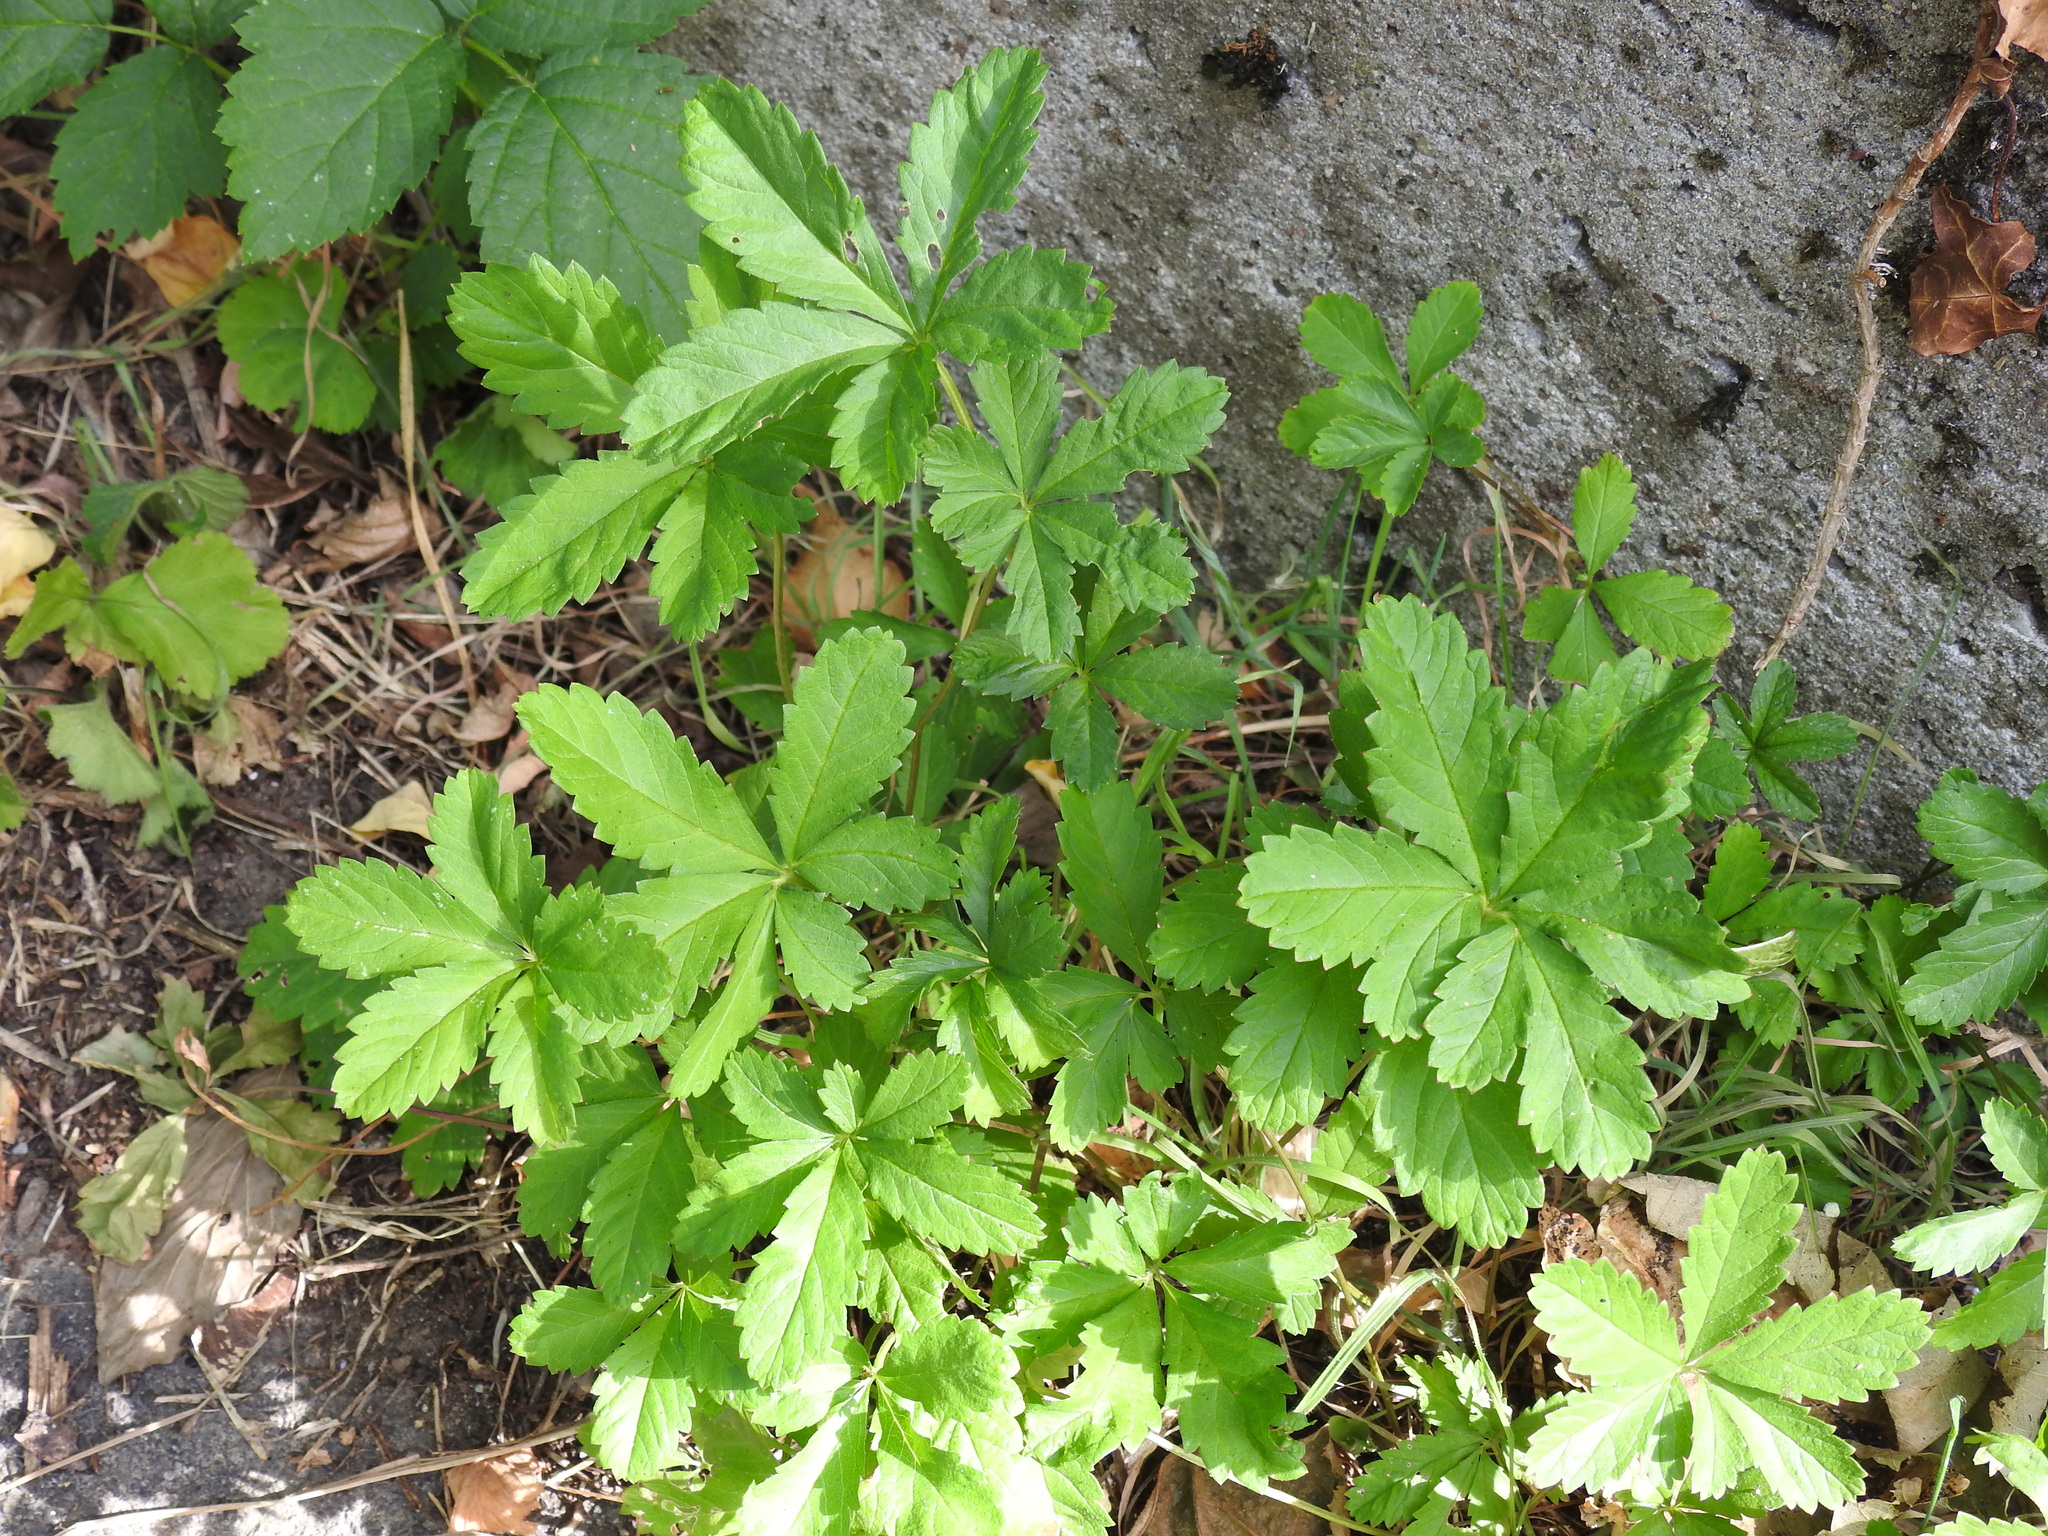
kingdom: Plantae
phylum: Tracheophyta
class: Magnoliopsida
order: Rosales
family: Rosaceae
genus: Potentilla
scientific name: Potentilla reptans
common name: Creeping cinquefoil
